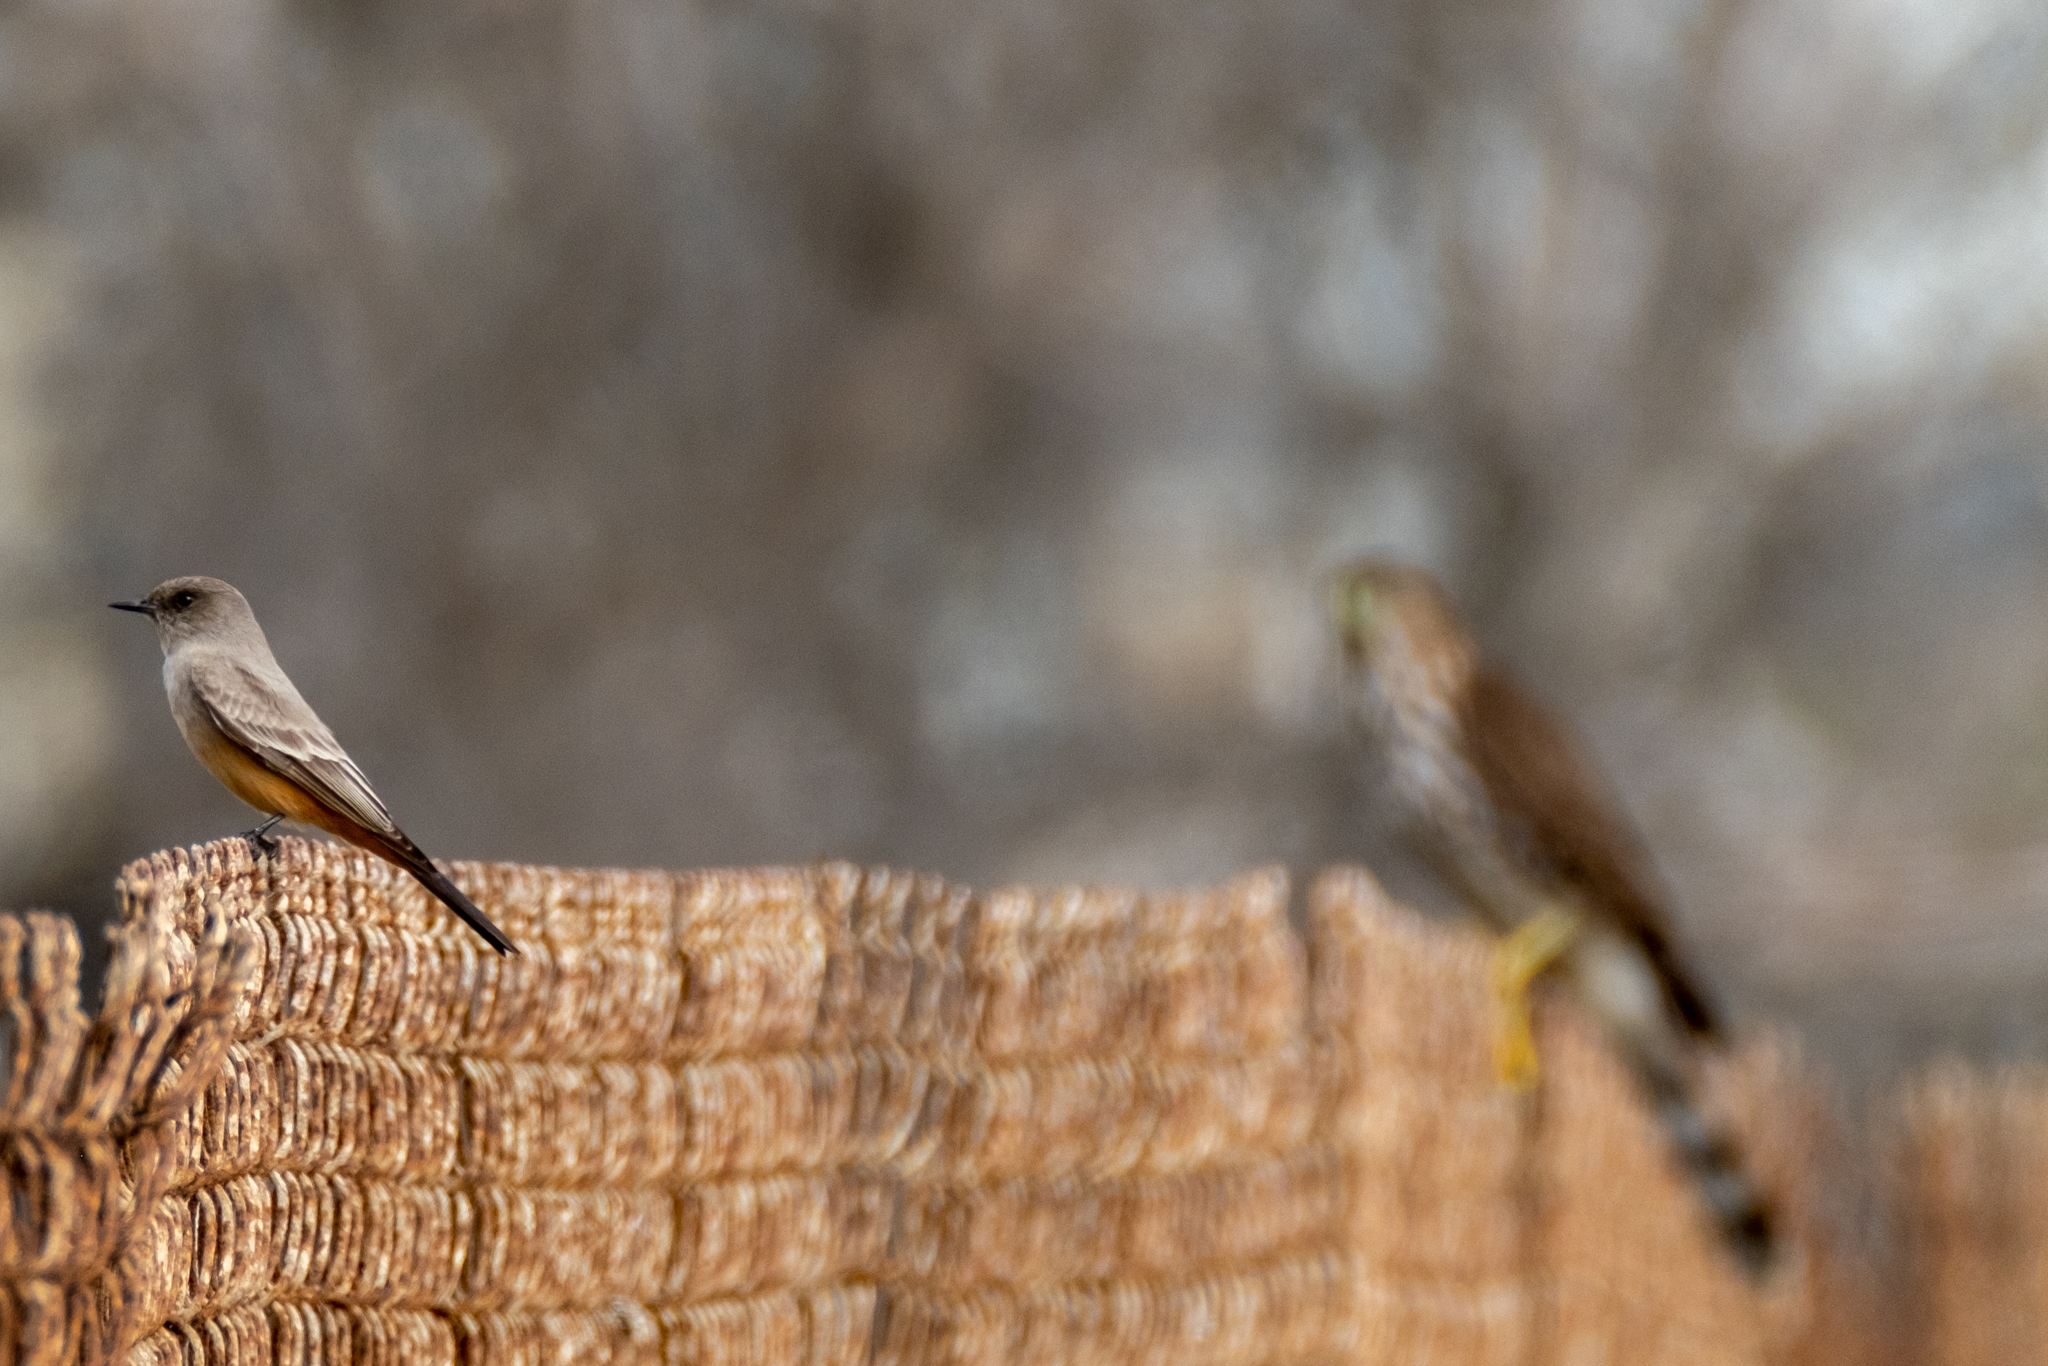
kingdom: Animalia
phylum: Chordata
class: Aves
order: Passeriformes
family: Tyrannidae
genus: Sayornis
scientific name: Sayornis saya
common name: Say's phoebe
